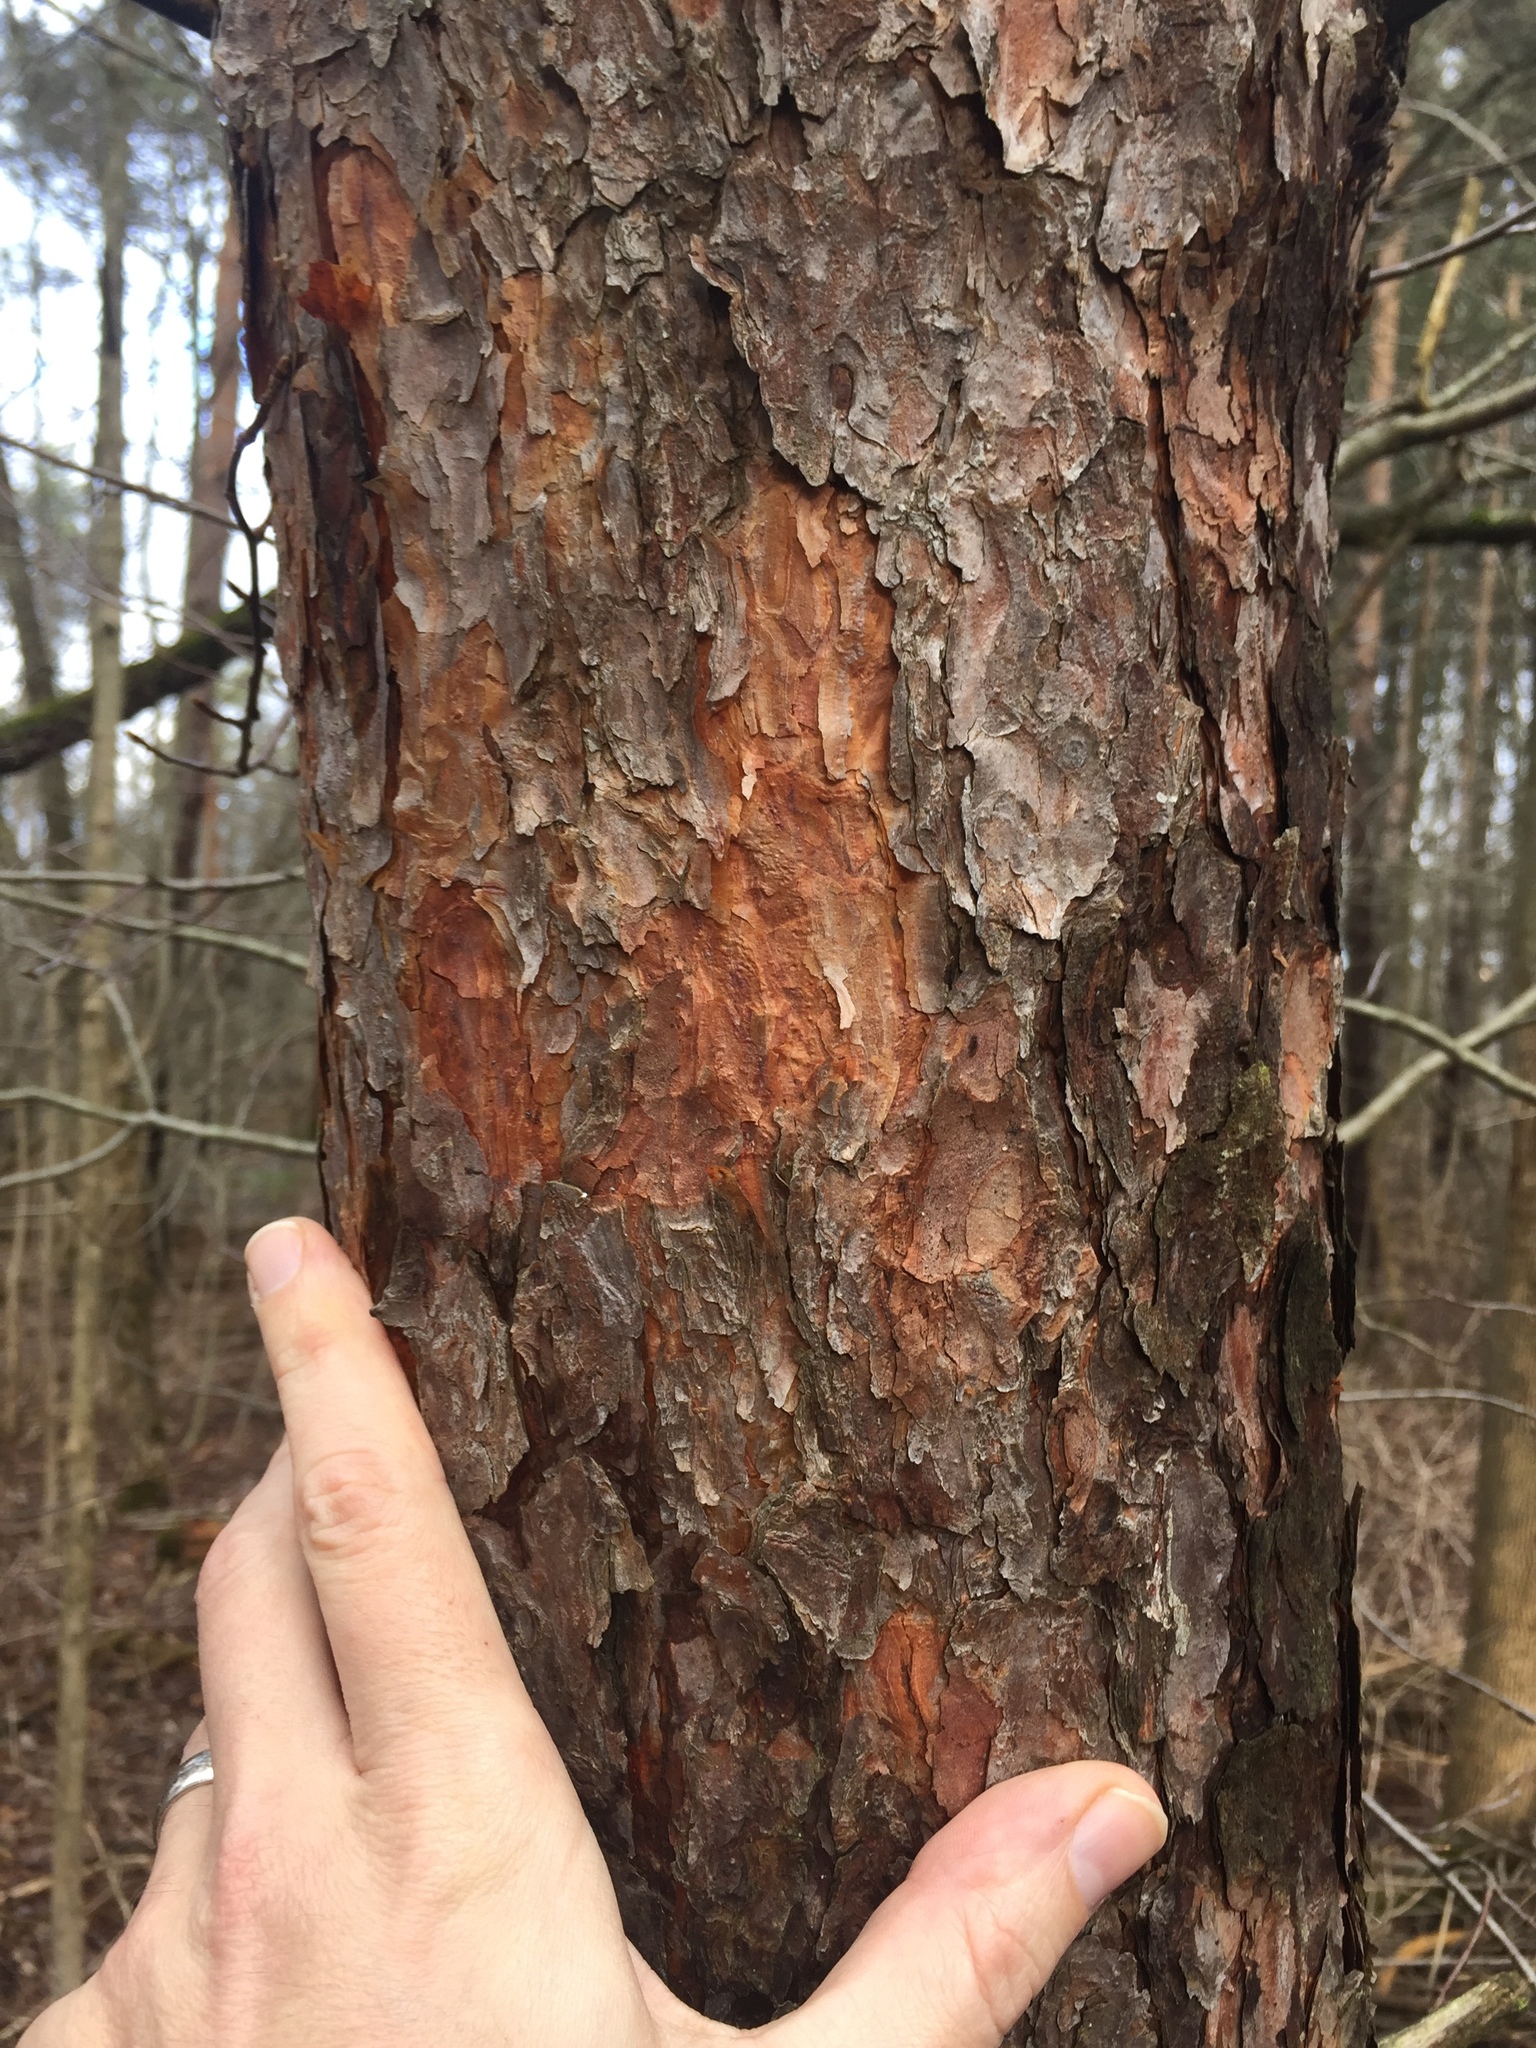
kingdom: Plantae
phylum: Tracheophyta
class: Pinopsida
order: Pinales
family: Pinaceae
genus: Pinus
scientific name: Pinus sylvestris
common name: Scots pine
